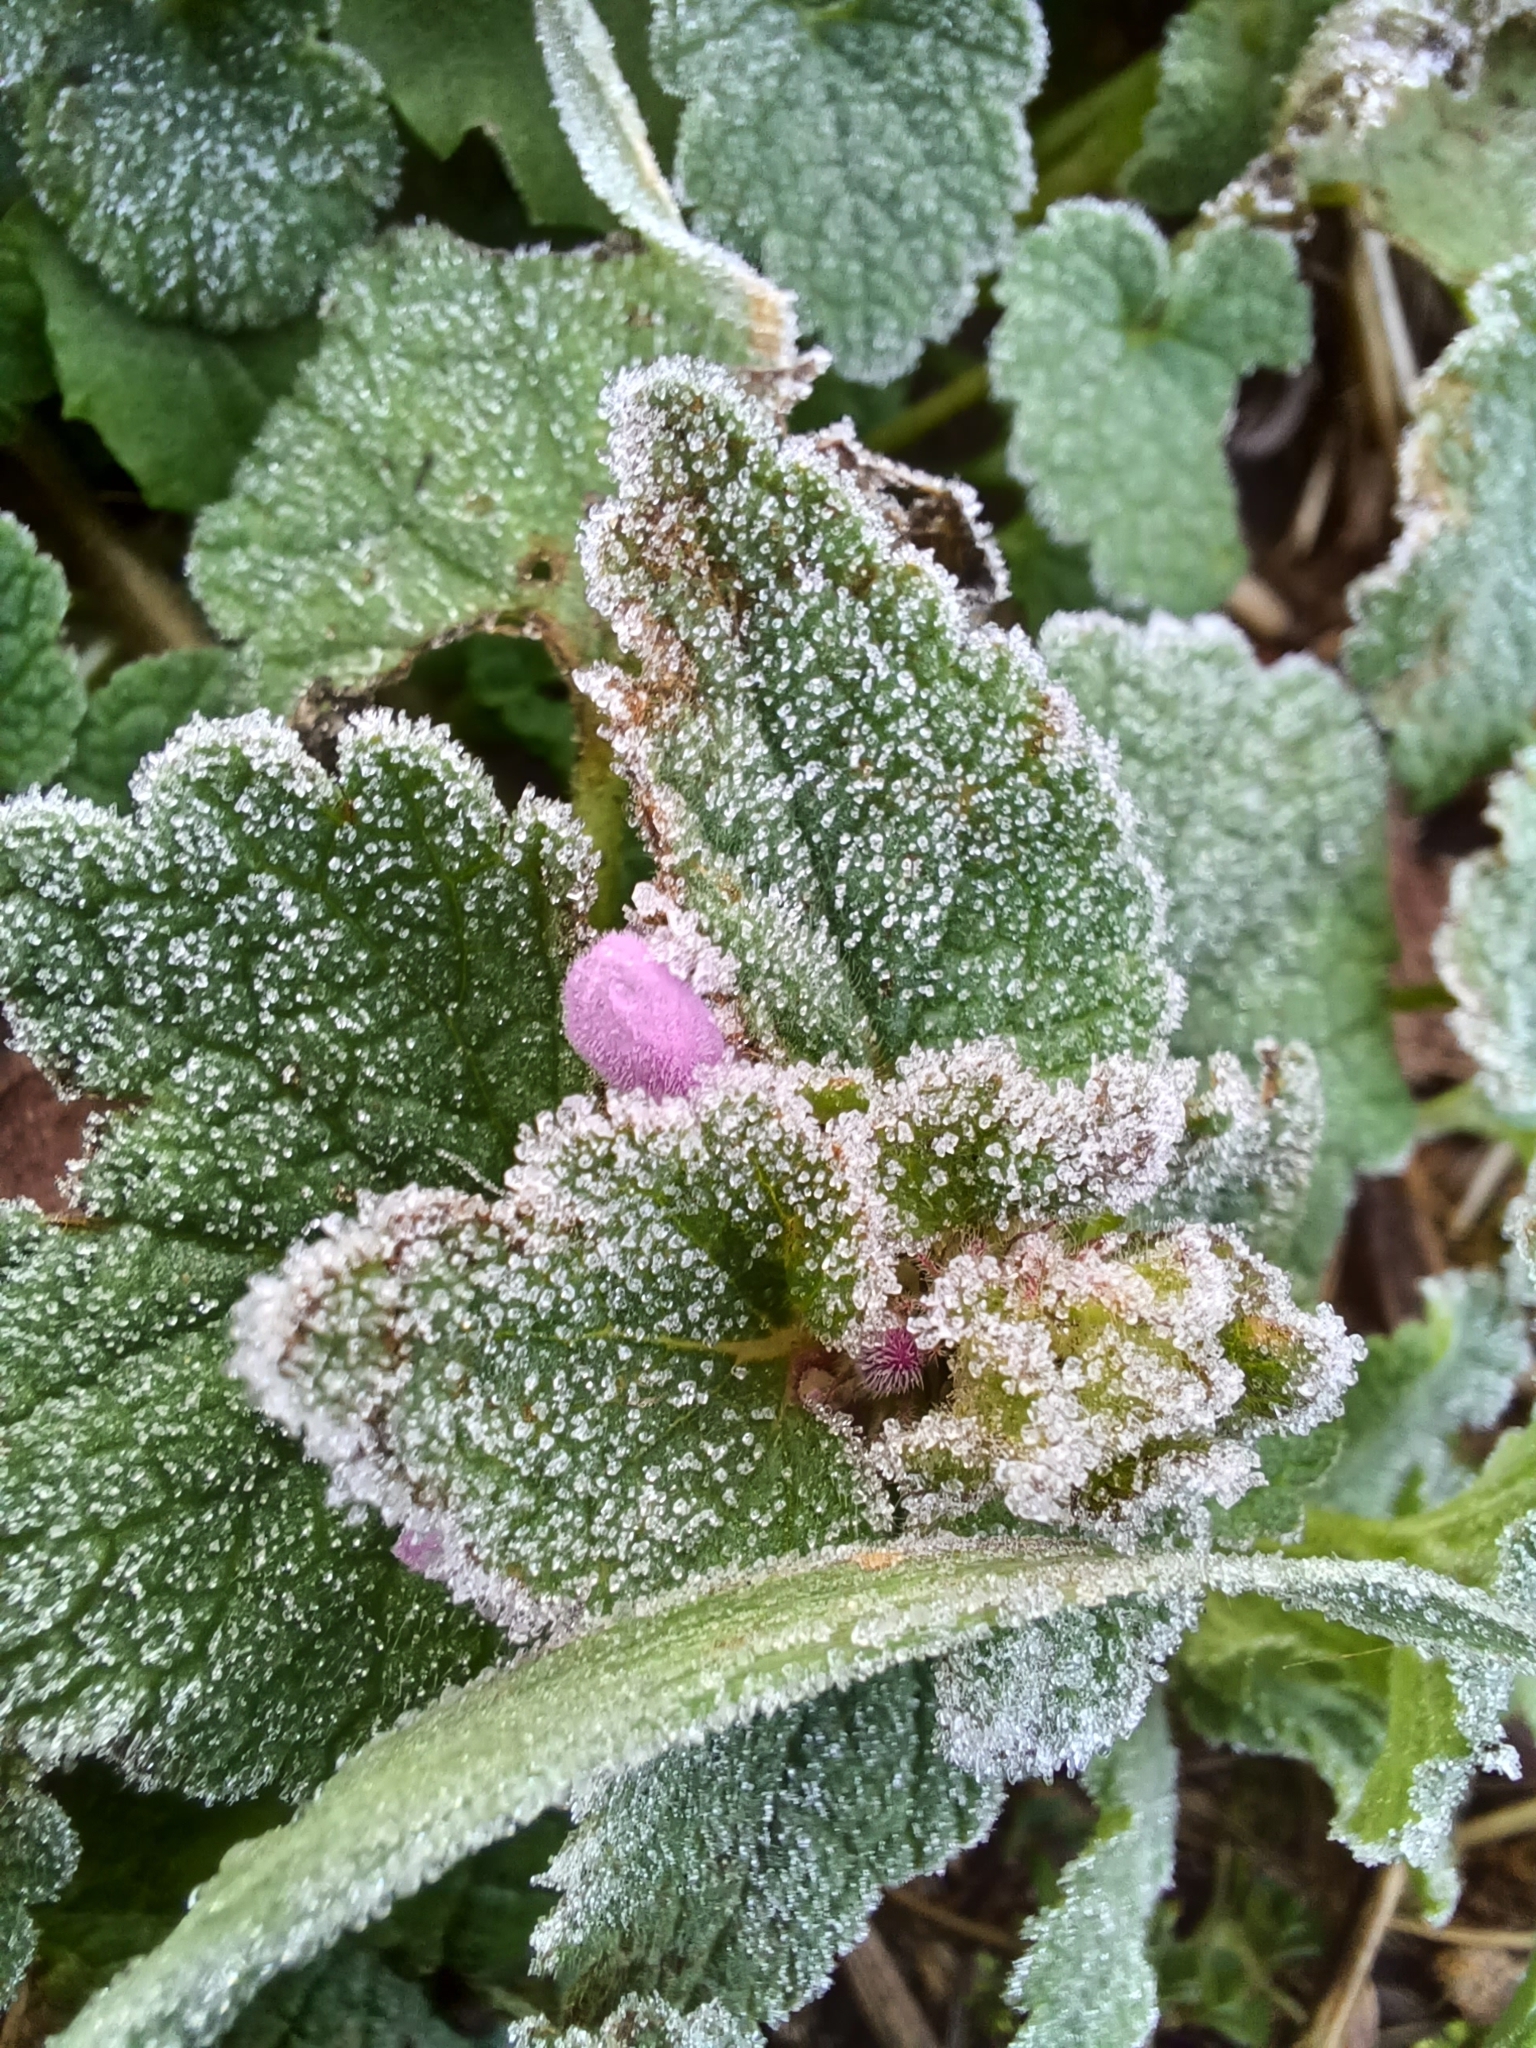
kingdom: Plantae
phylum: Tracheophyta
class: Magnoliopsida
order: Lamiales
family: Lamiaceae
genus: Lamium
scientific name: Lamium purpureum
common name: Red dead-nettle
